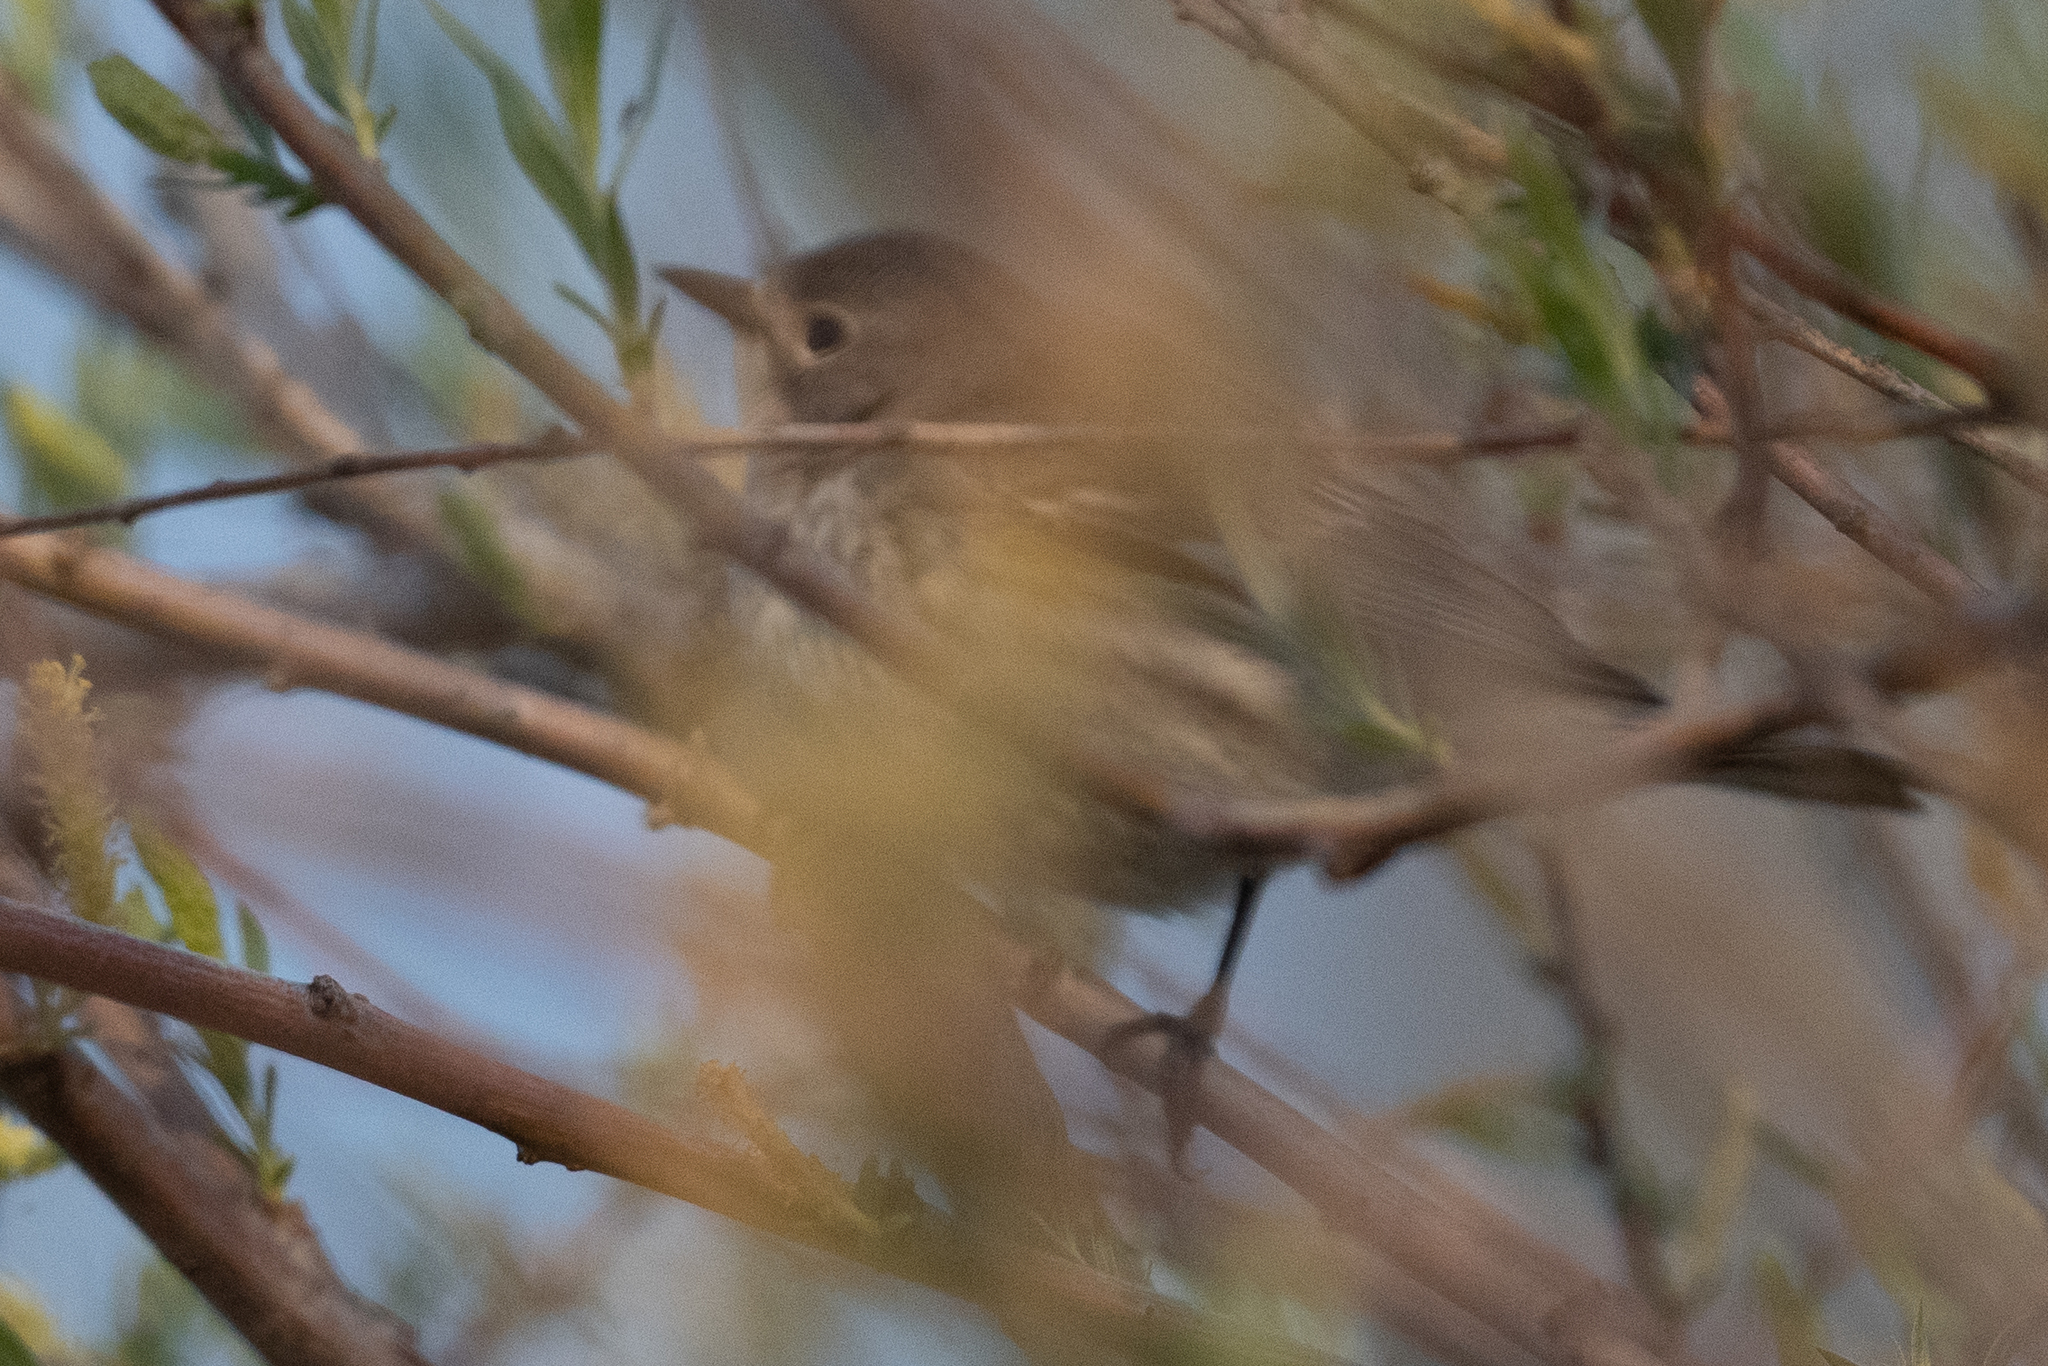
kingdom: Animalia
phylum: Chordata
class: Aves
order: Passeriformes
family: Parulidae
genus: Setophaga
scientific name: Setophaga coronata
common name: Myrtle warbler
